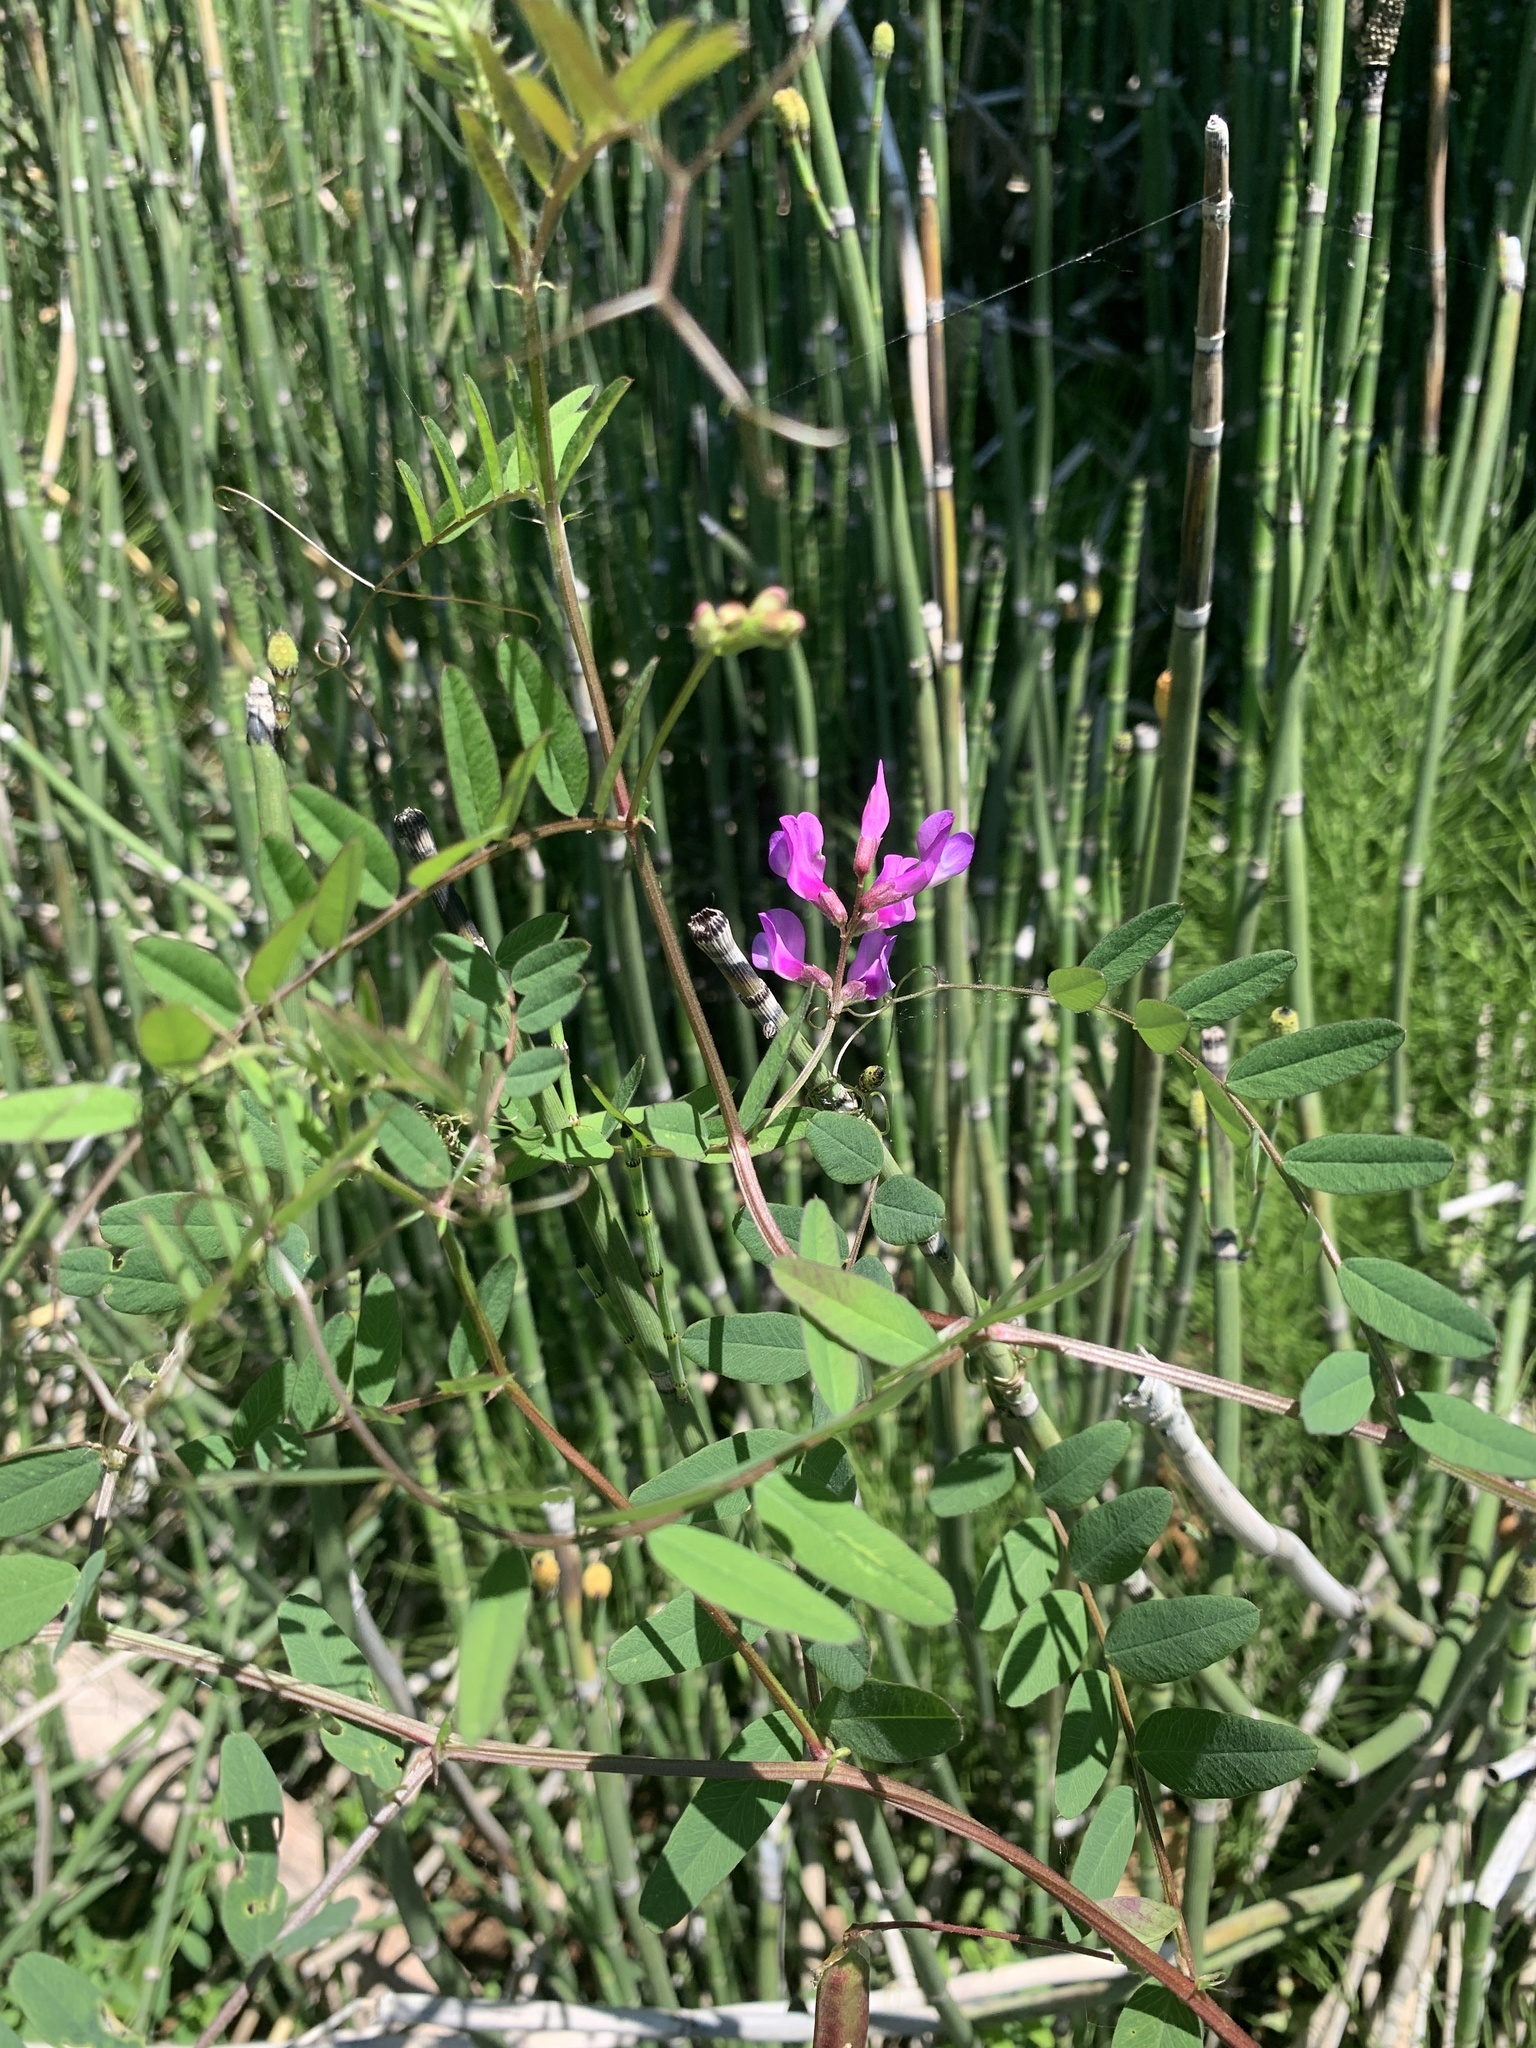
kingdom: Plantae
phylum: Tracheophyta
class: Magnoliopsida
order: Fabales
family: Fabaceae
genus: Vicia
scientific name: Vicia americana
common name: American vetch
